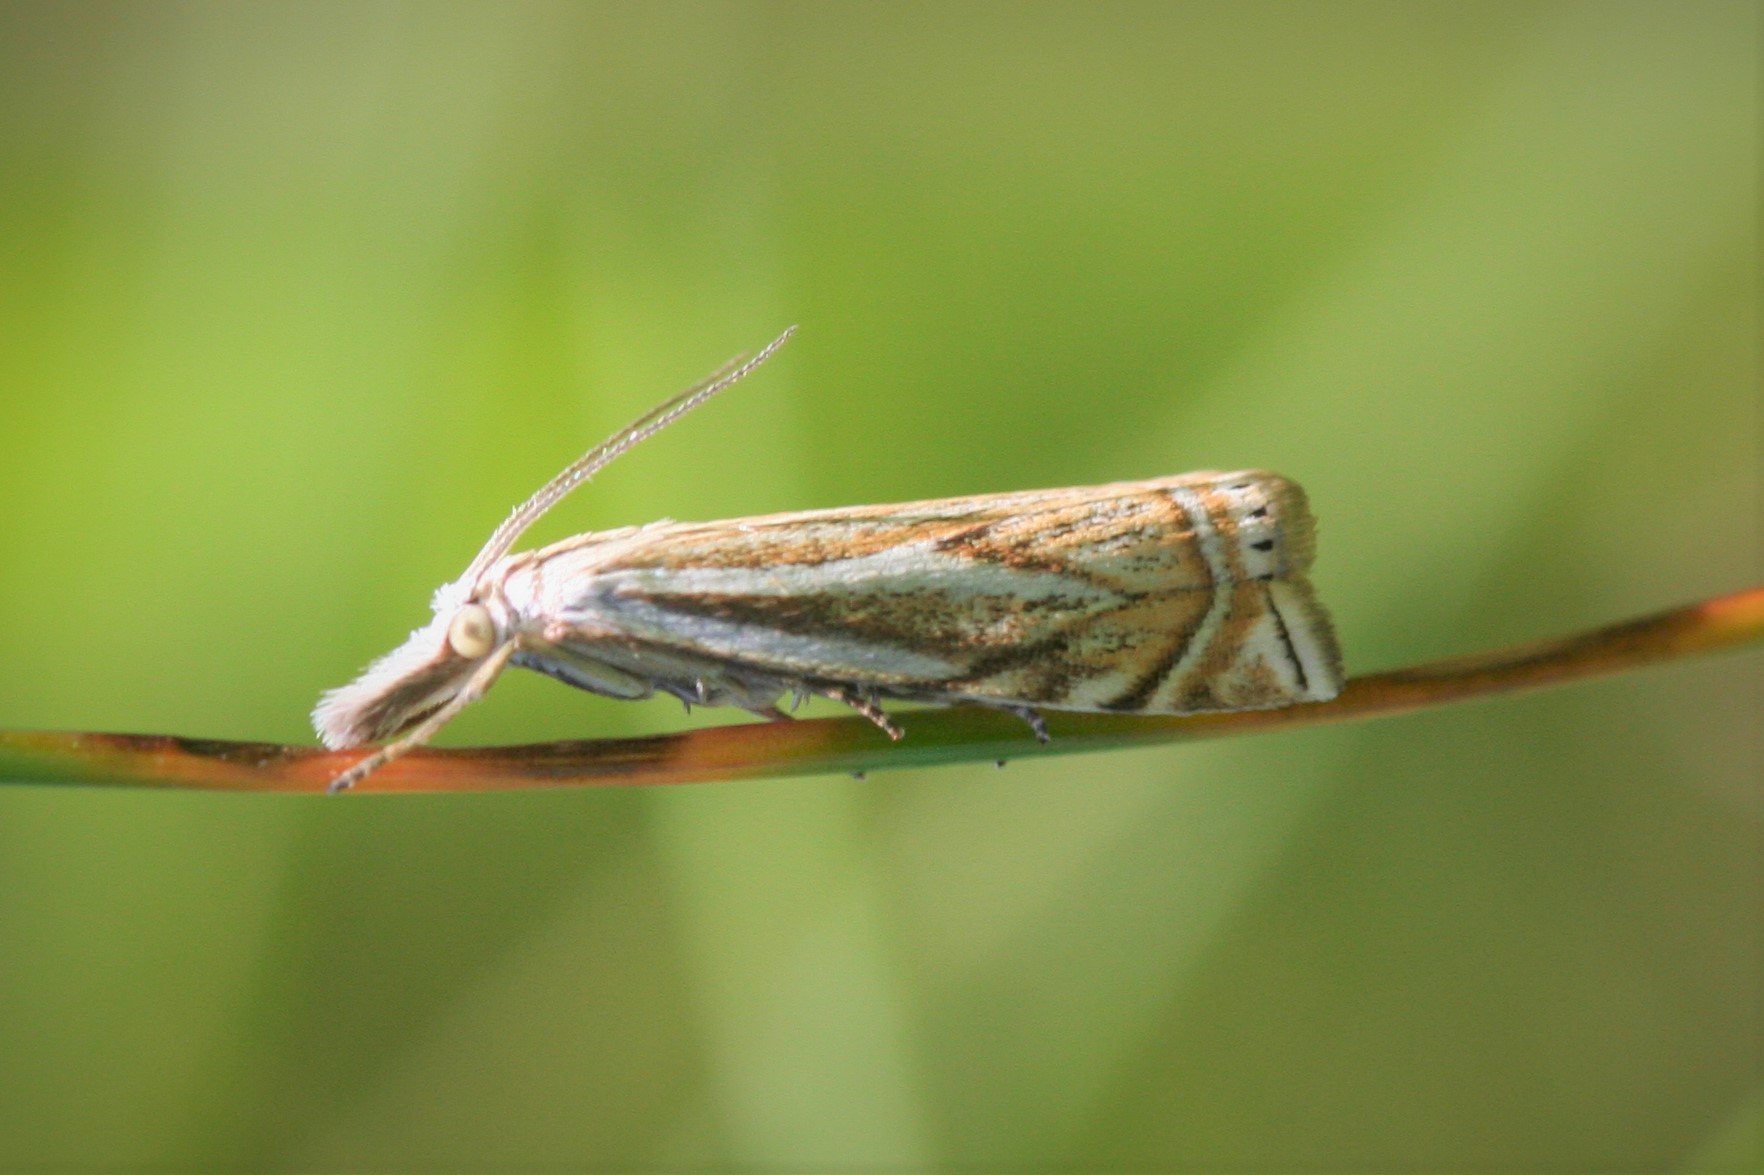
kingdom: Animalia
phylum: Arthropoda
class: Insecta
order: Lepidoptera
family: Crambidae
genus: Crambus
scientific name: Crambus nemorella
